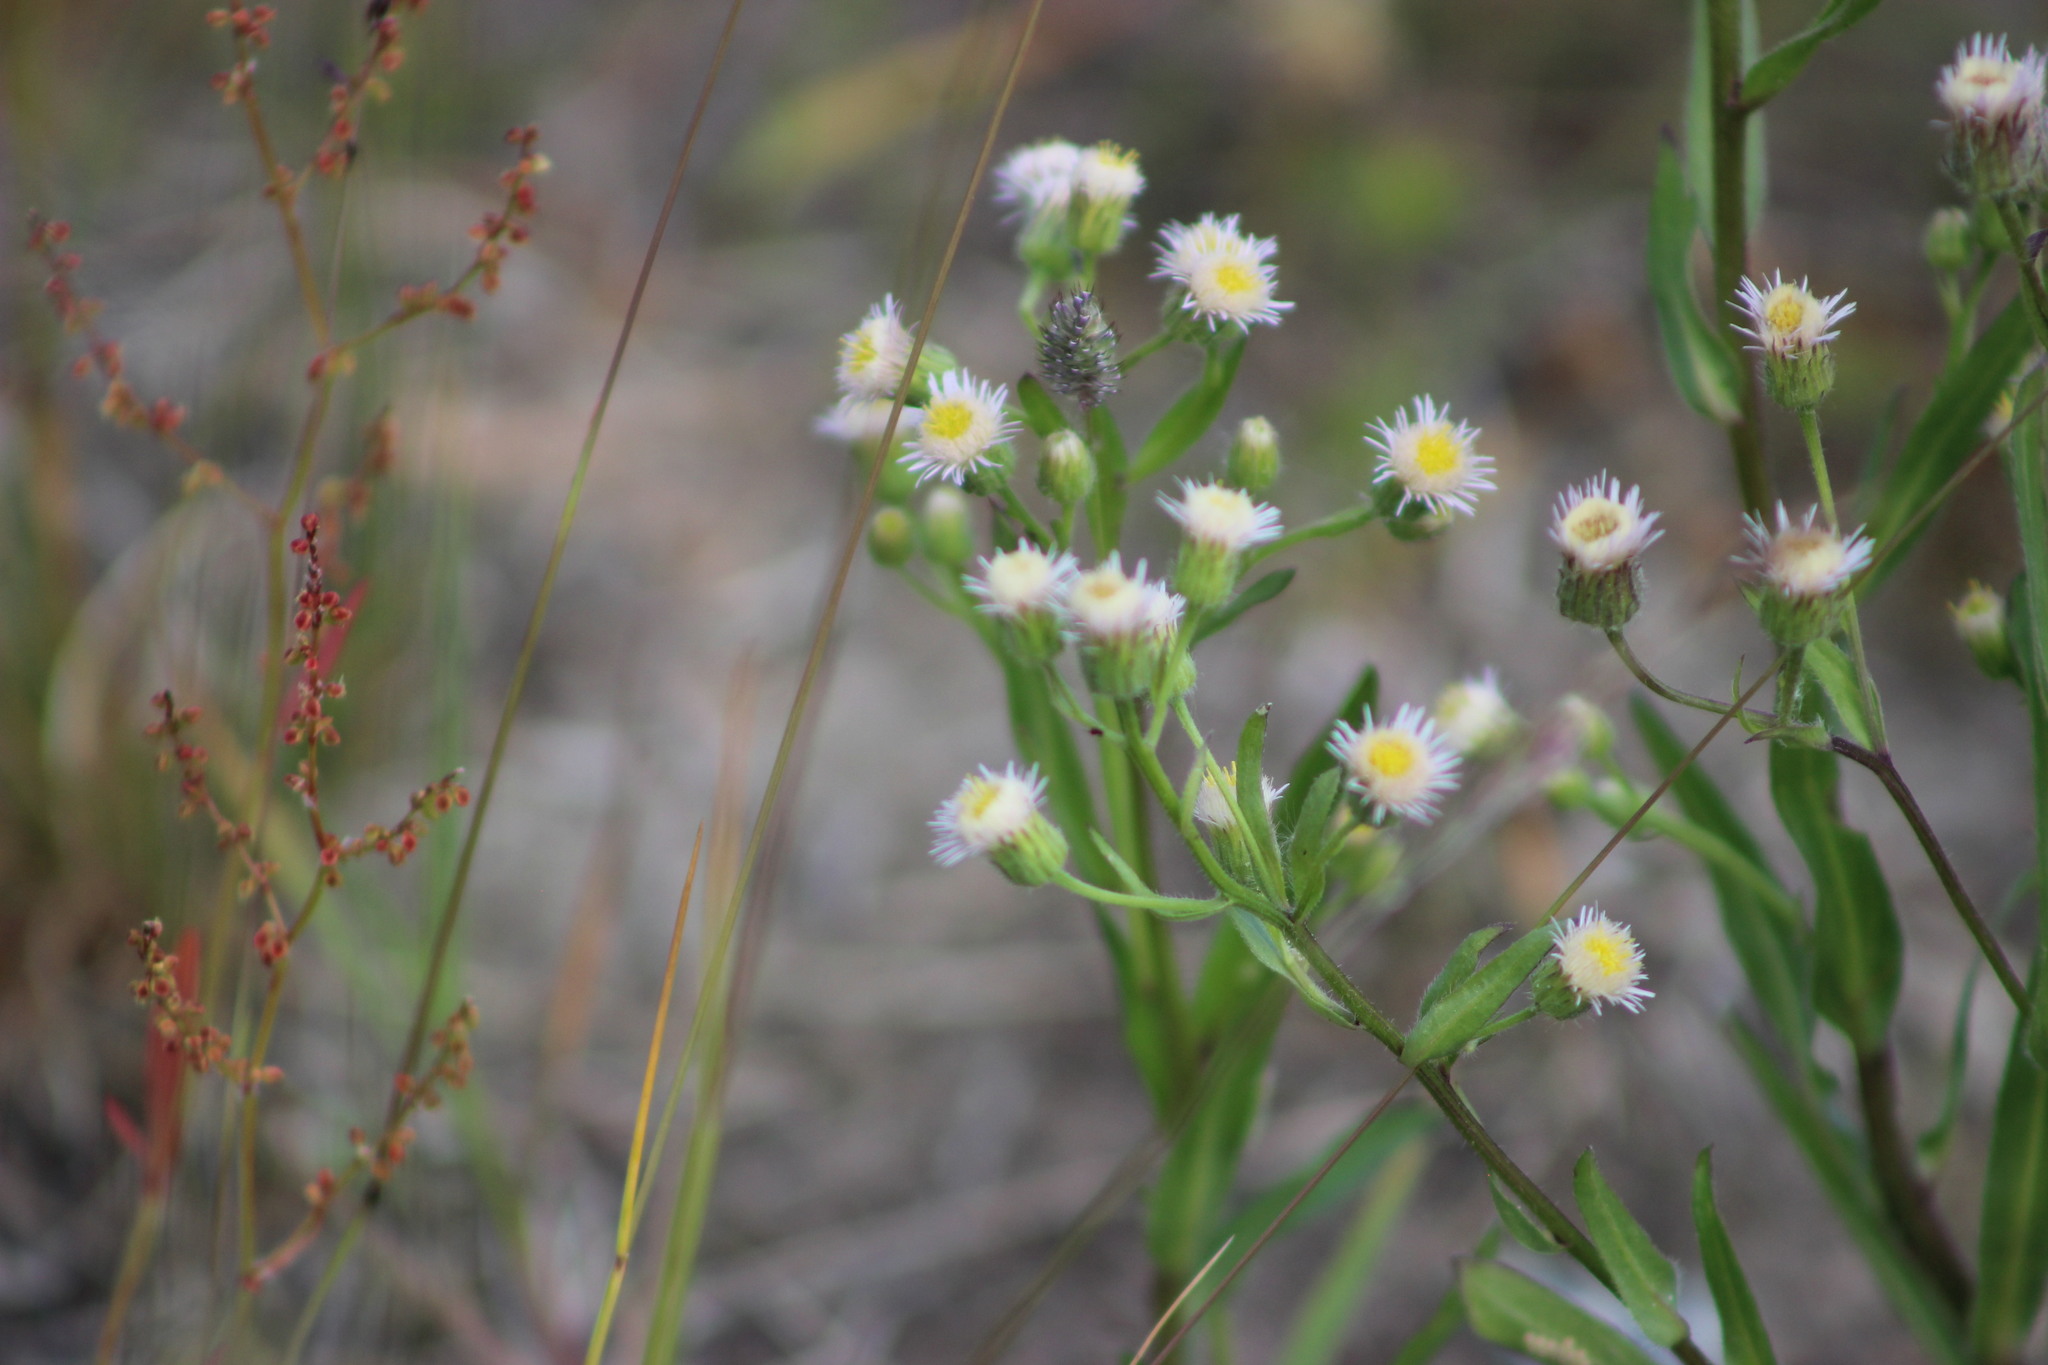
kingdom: Plantae
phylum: Tracheophyta
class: Magnoliopsida
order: Asterales
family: Asteraceae
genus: Erigeron
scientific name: Erigeron acris
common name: Blue fleabane
